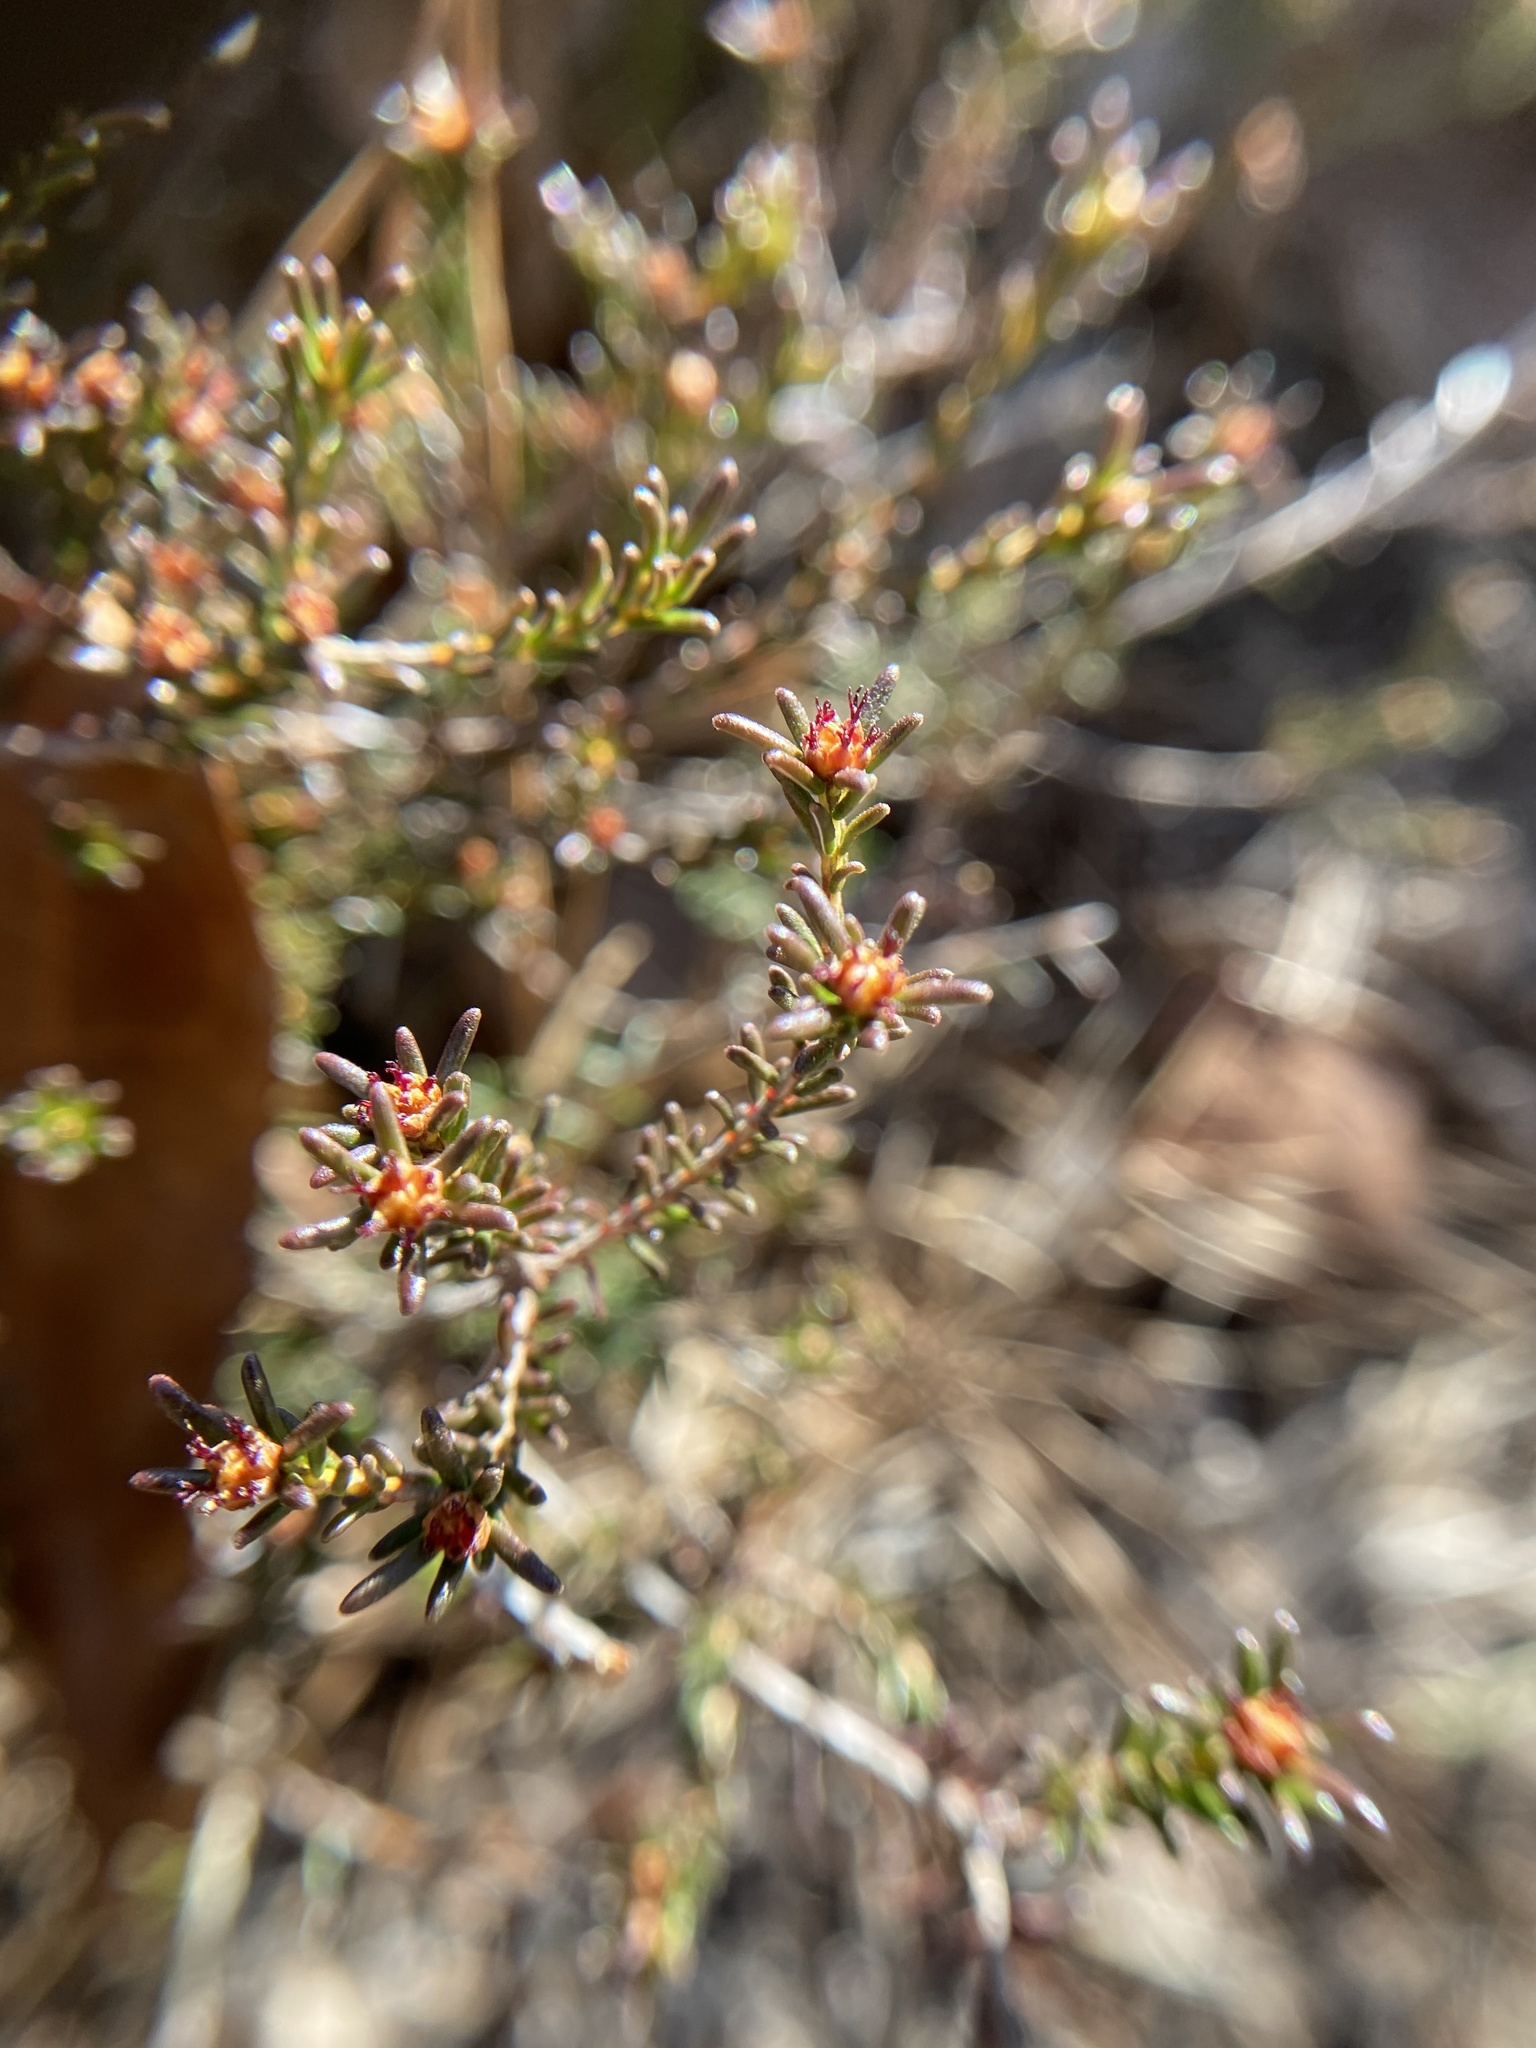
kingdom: Plantae
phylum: Tracheophyta
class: Magnoliopsida
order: Ericales
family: Ericaceae
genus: Corema
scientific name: Corema conradii
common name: Broom-crowberry
